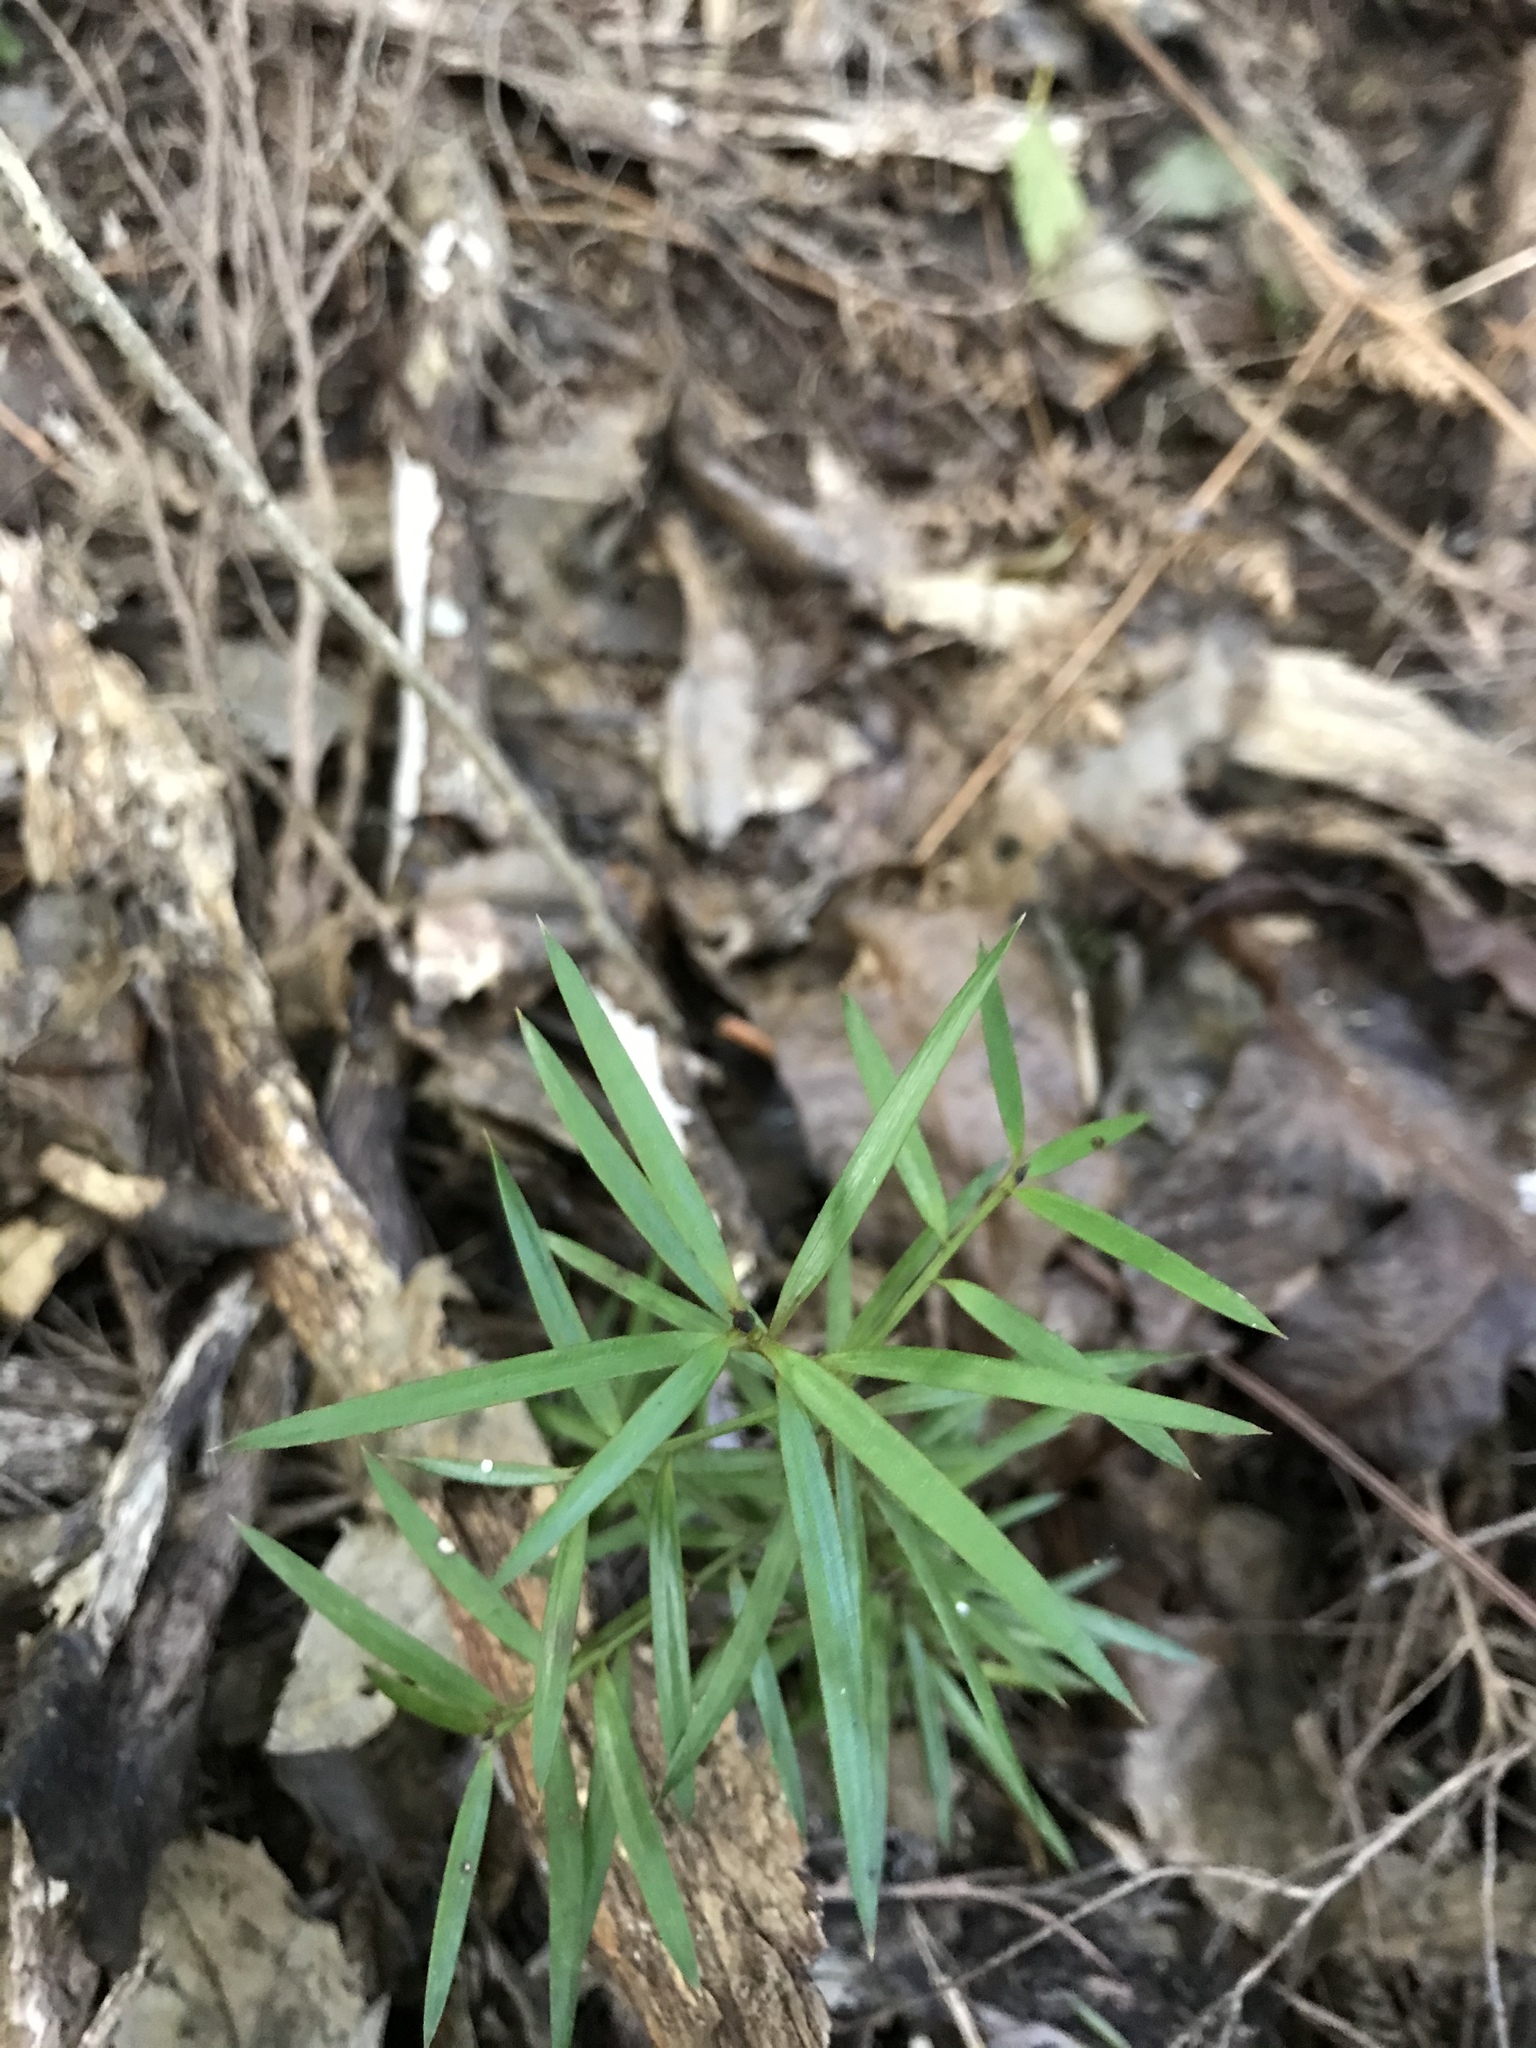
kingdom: Plantae
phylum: Tracheophyta
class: Pinopsida
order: Pinales
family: Podocarpaceae
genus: Podocarpus
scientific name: Podocarpus totara
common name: Totara
